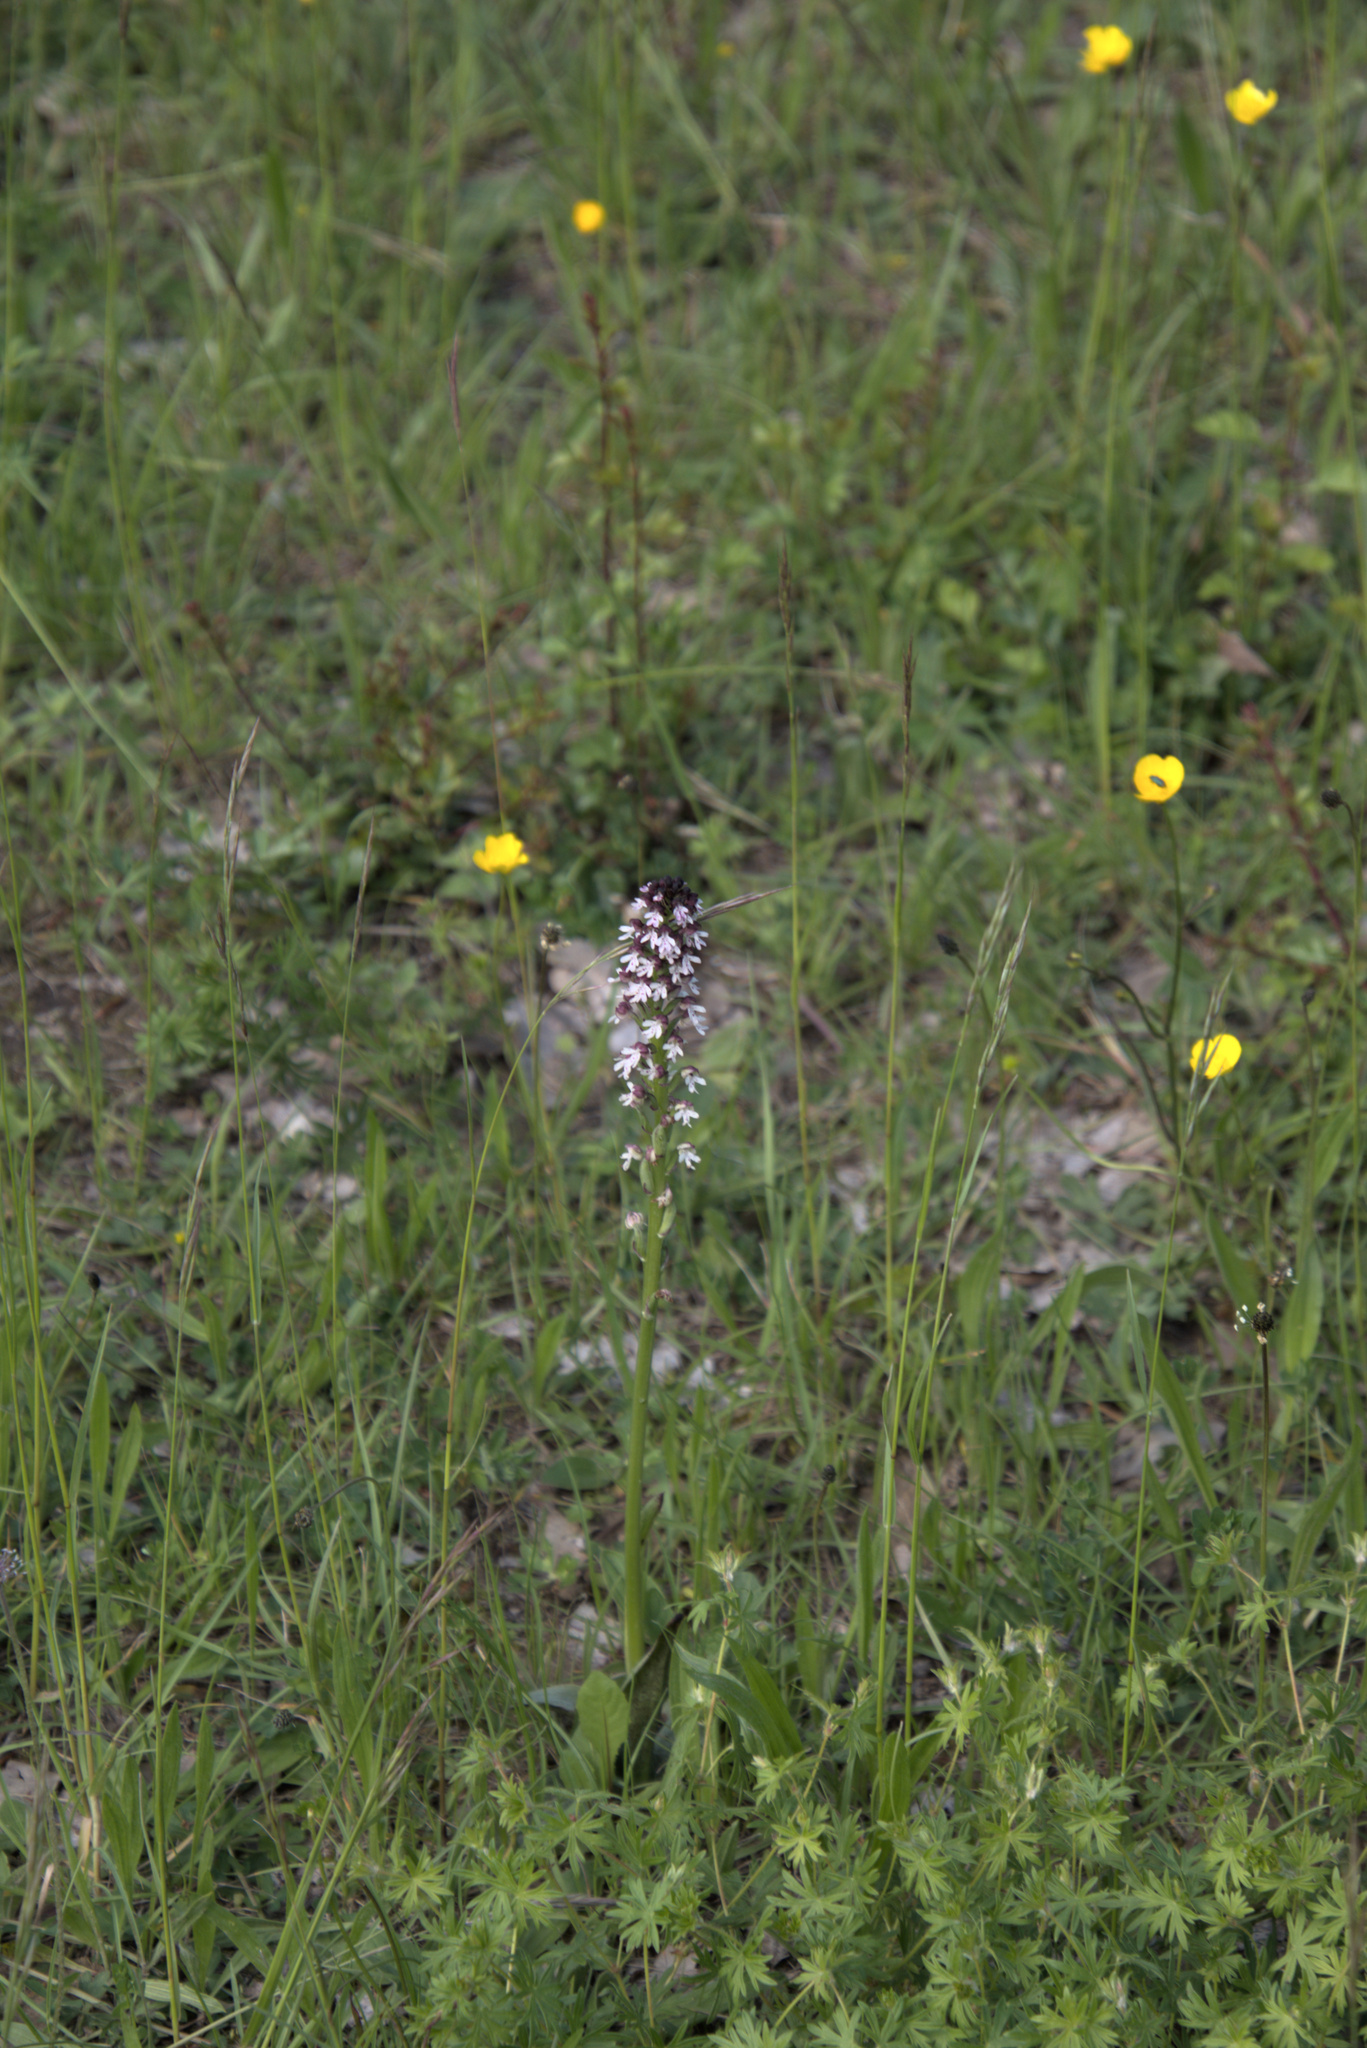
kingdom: Plantae
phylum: Tracheophyta
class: Liliopsida
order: Asparagales
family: Orchidaceae
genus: Neotinea
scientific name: Neotinea ustulata
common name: Burnt orchid
